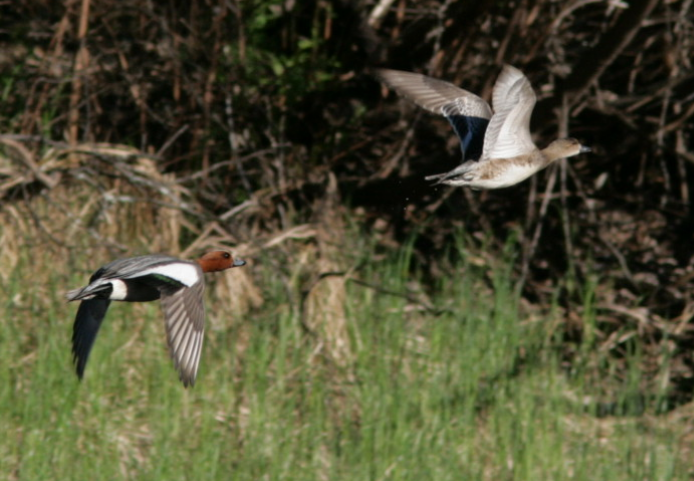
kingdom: Animalia
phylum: Chordata
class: Aves
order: Anseriformes
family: Anatidae
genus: Mareca
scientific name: Mareca penelope
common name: Eurasian wigeon
